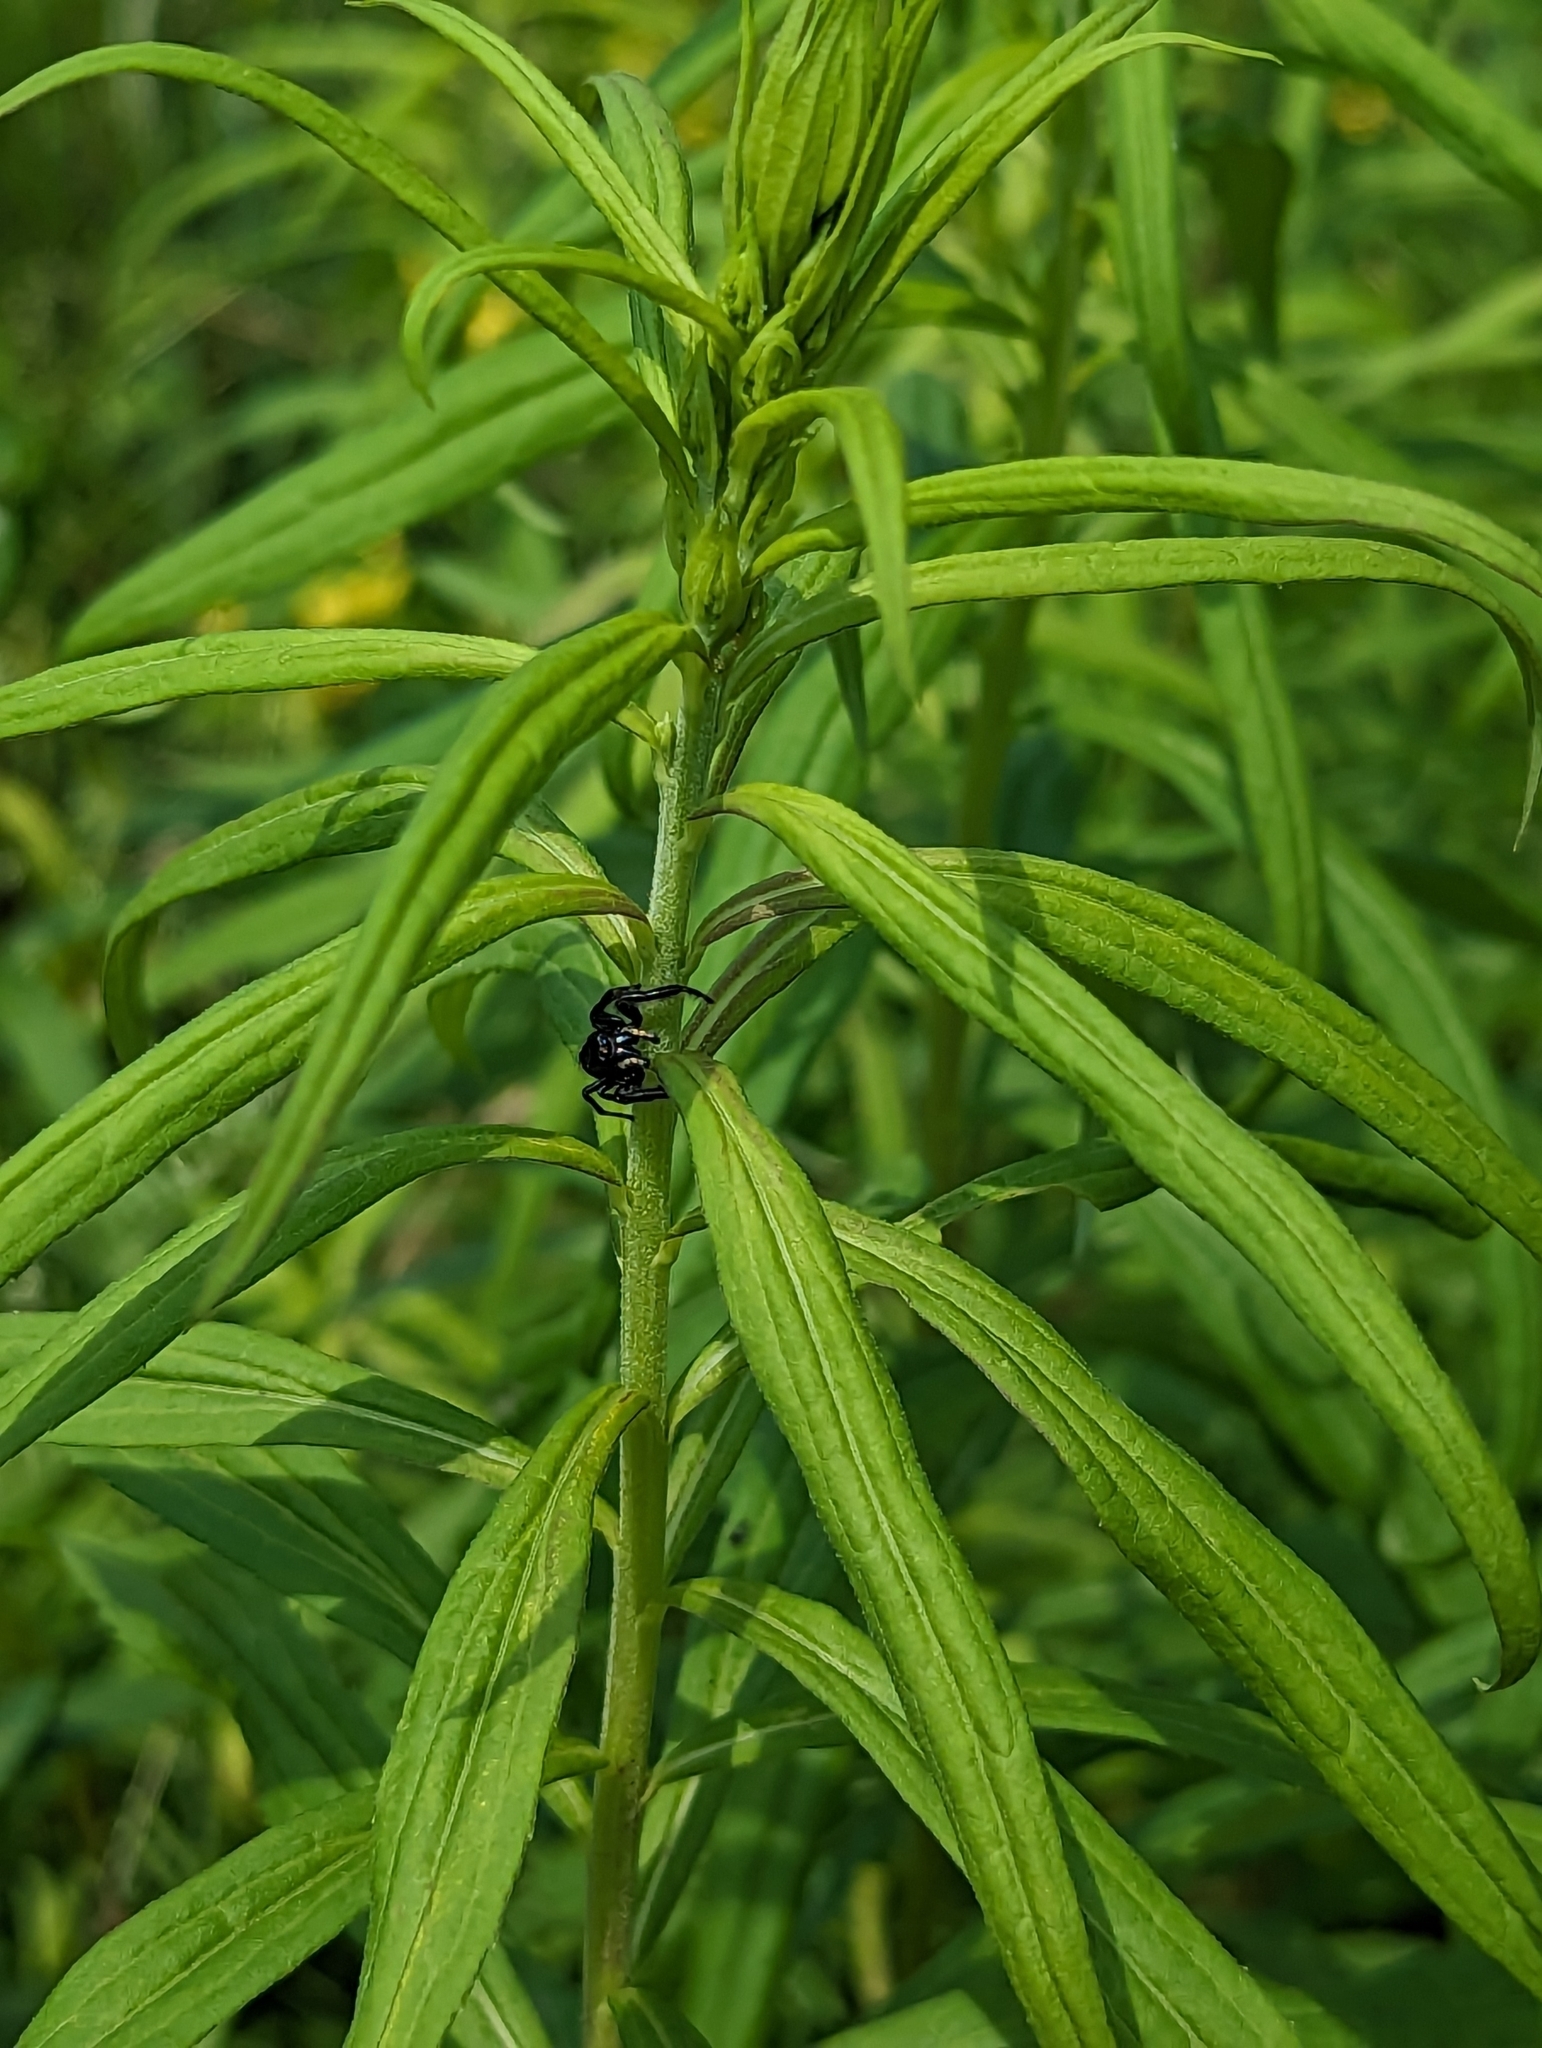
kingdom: Animalia
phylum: Arthropoda
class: Arachnida
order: Araneae
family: Salticidae
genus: Phidippus
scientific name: Phidippus clarus
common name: Brilliant jumping spider
